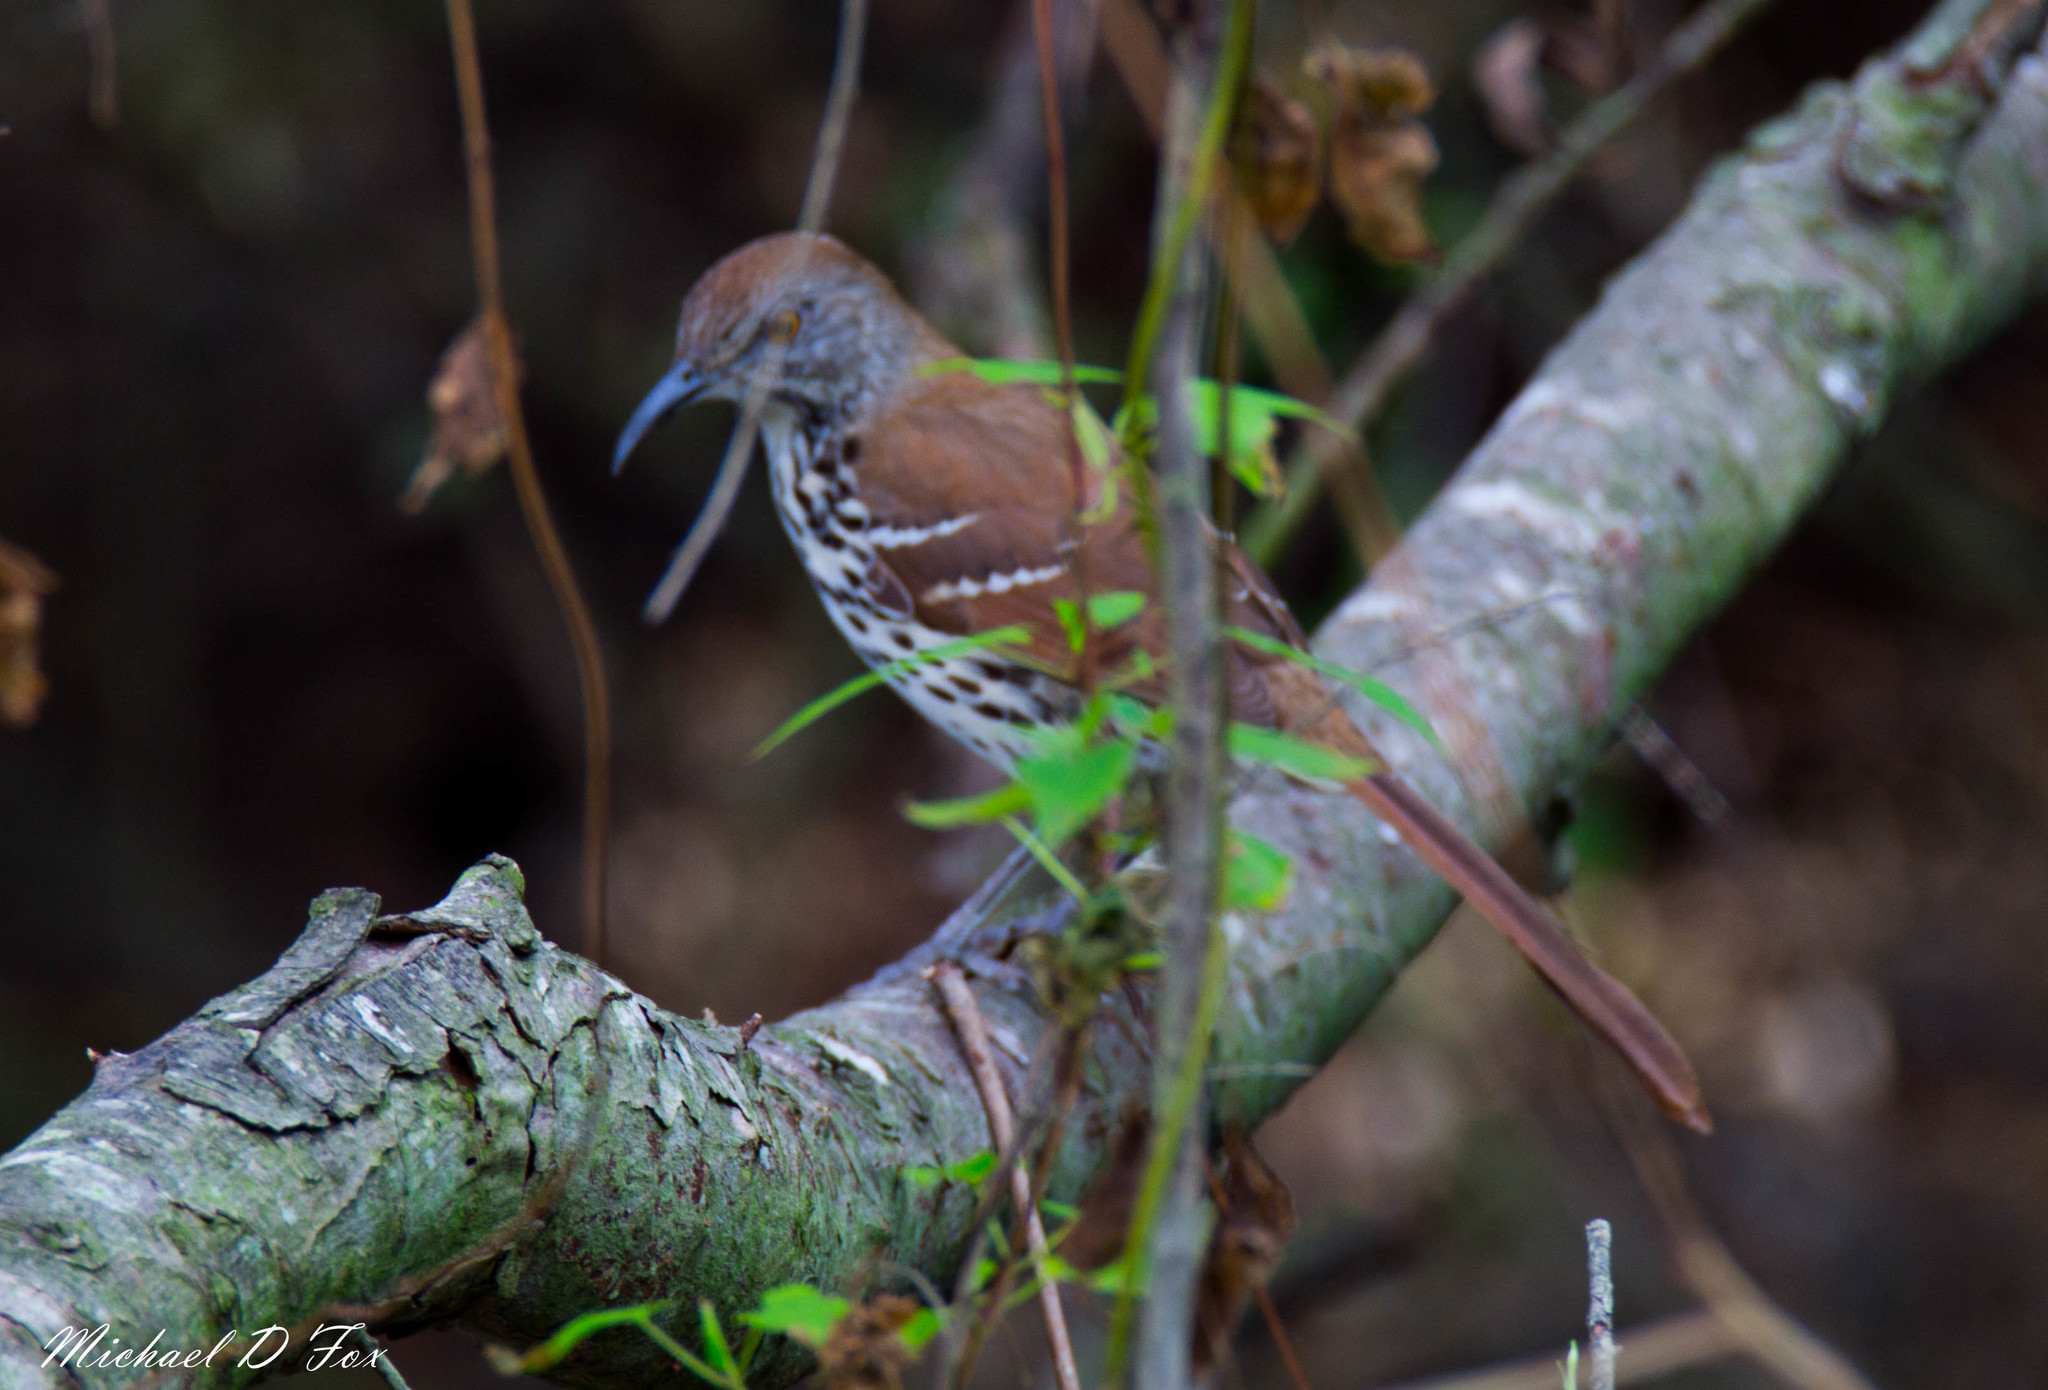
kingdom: Animalia
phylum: Chordata
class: Aves
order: Passeriformes
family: Mimidae
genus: Toxostoma
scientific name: Toxostoma longirostre
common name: Long-billed thrasher
